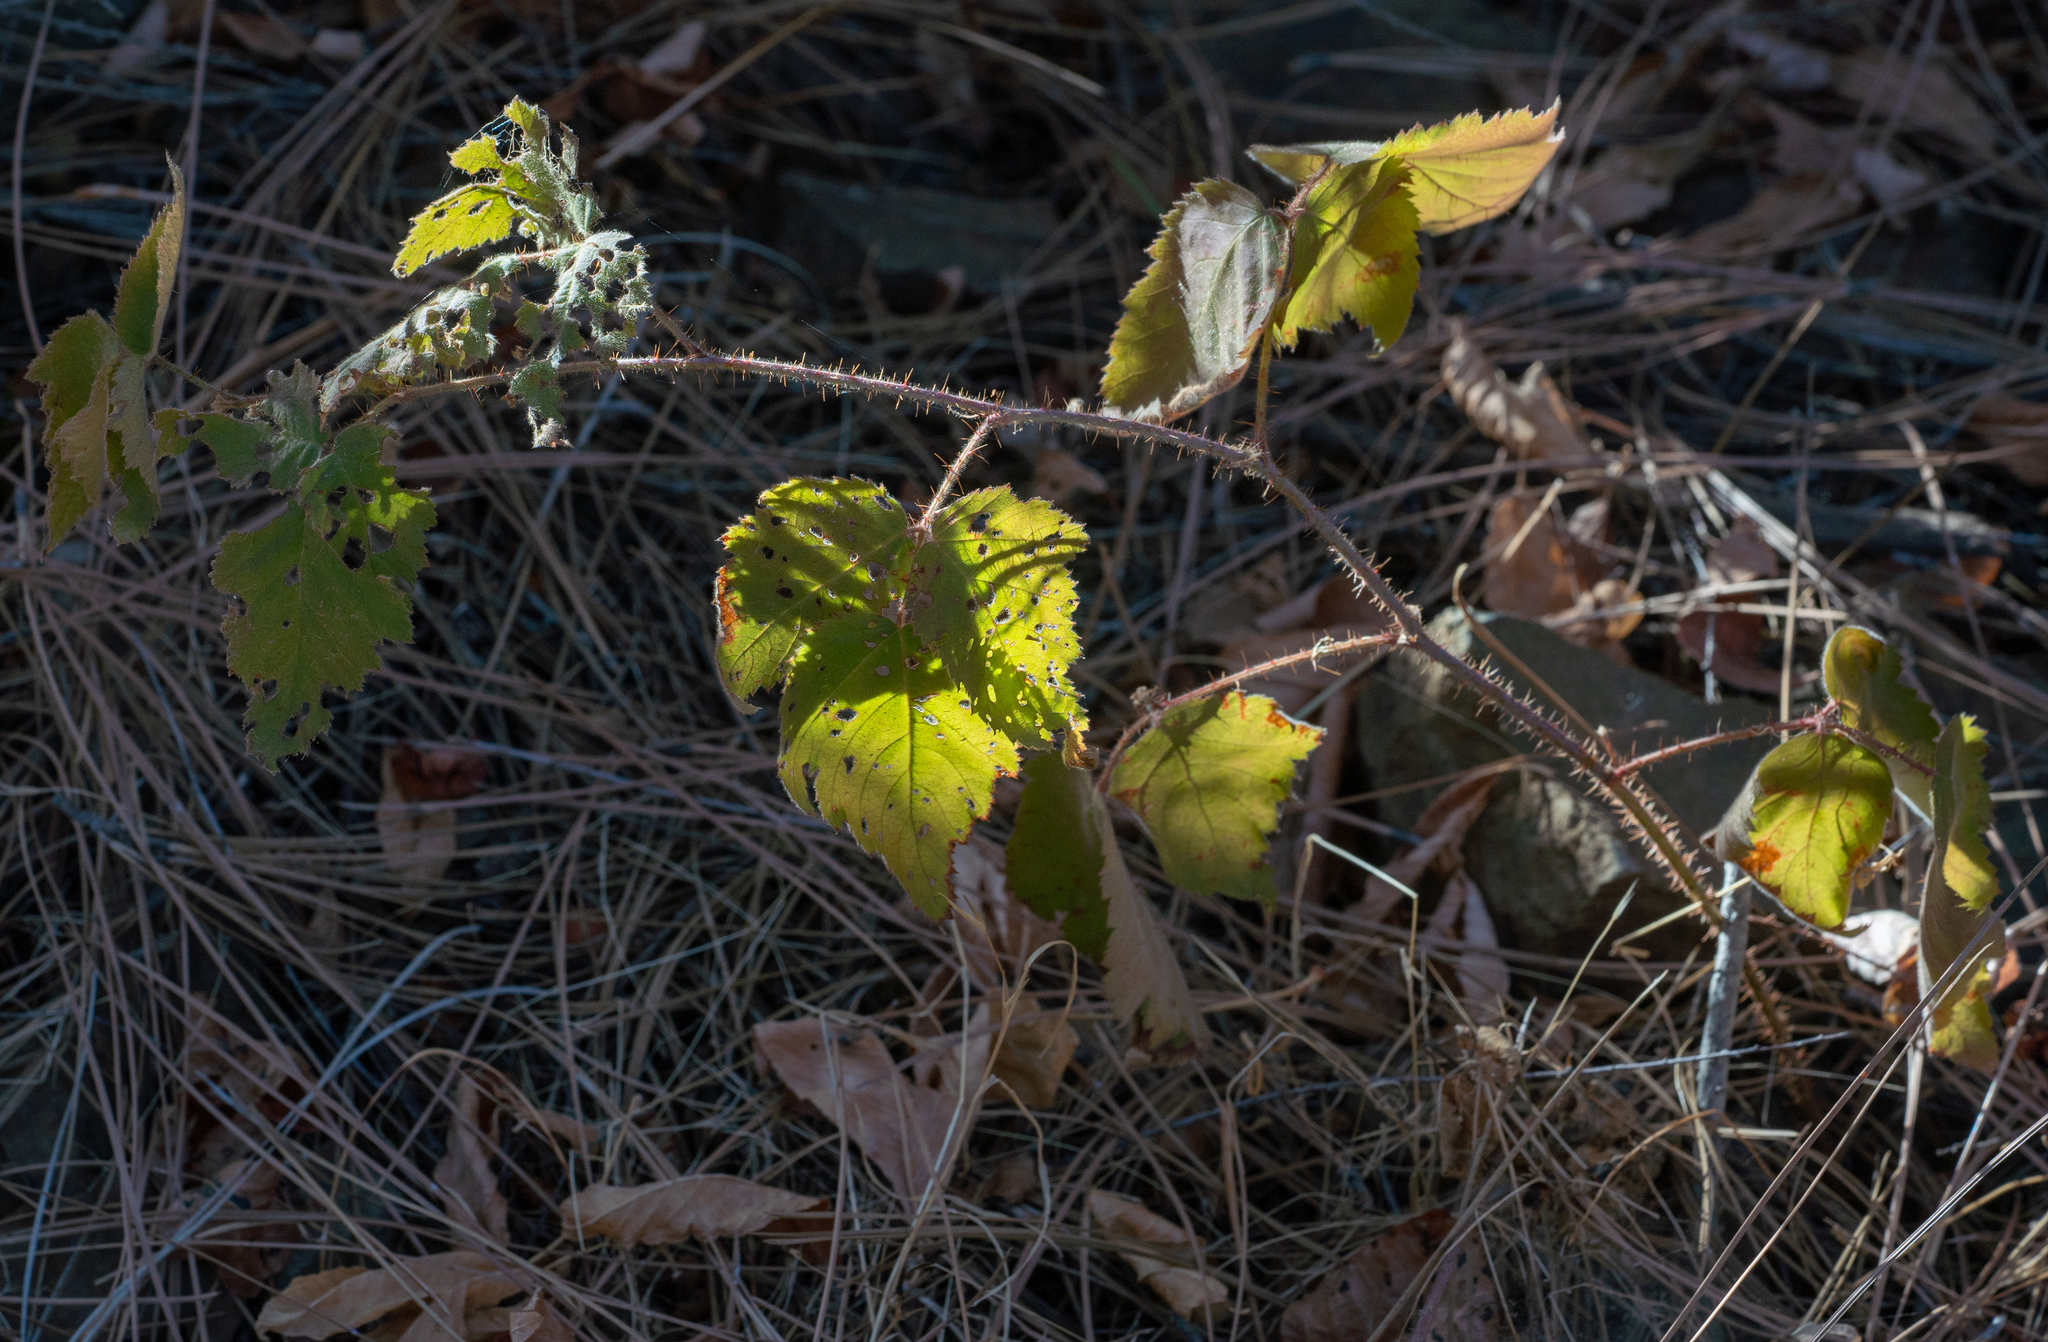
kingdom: Plantae
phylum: Tracheophyta
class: Magnoliopsida
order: Rosales
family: Rosaceae
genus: Rubus
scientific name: Rubus ursinus
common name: Pacific blackberry
